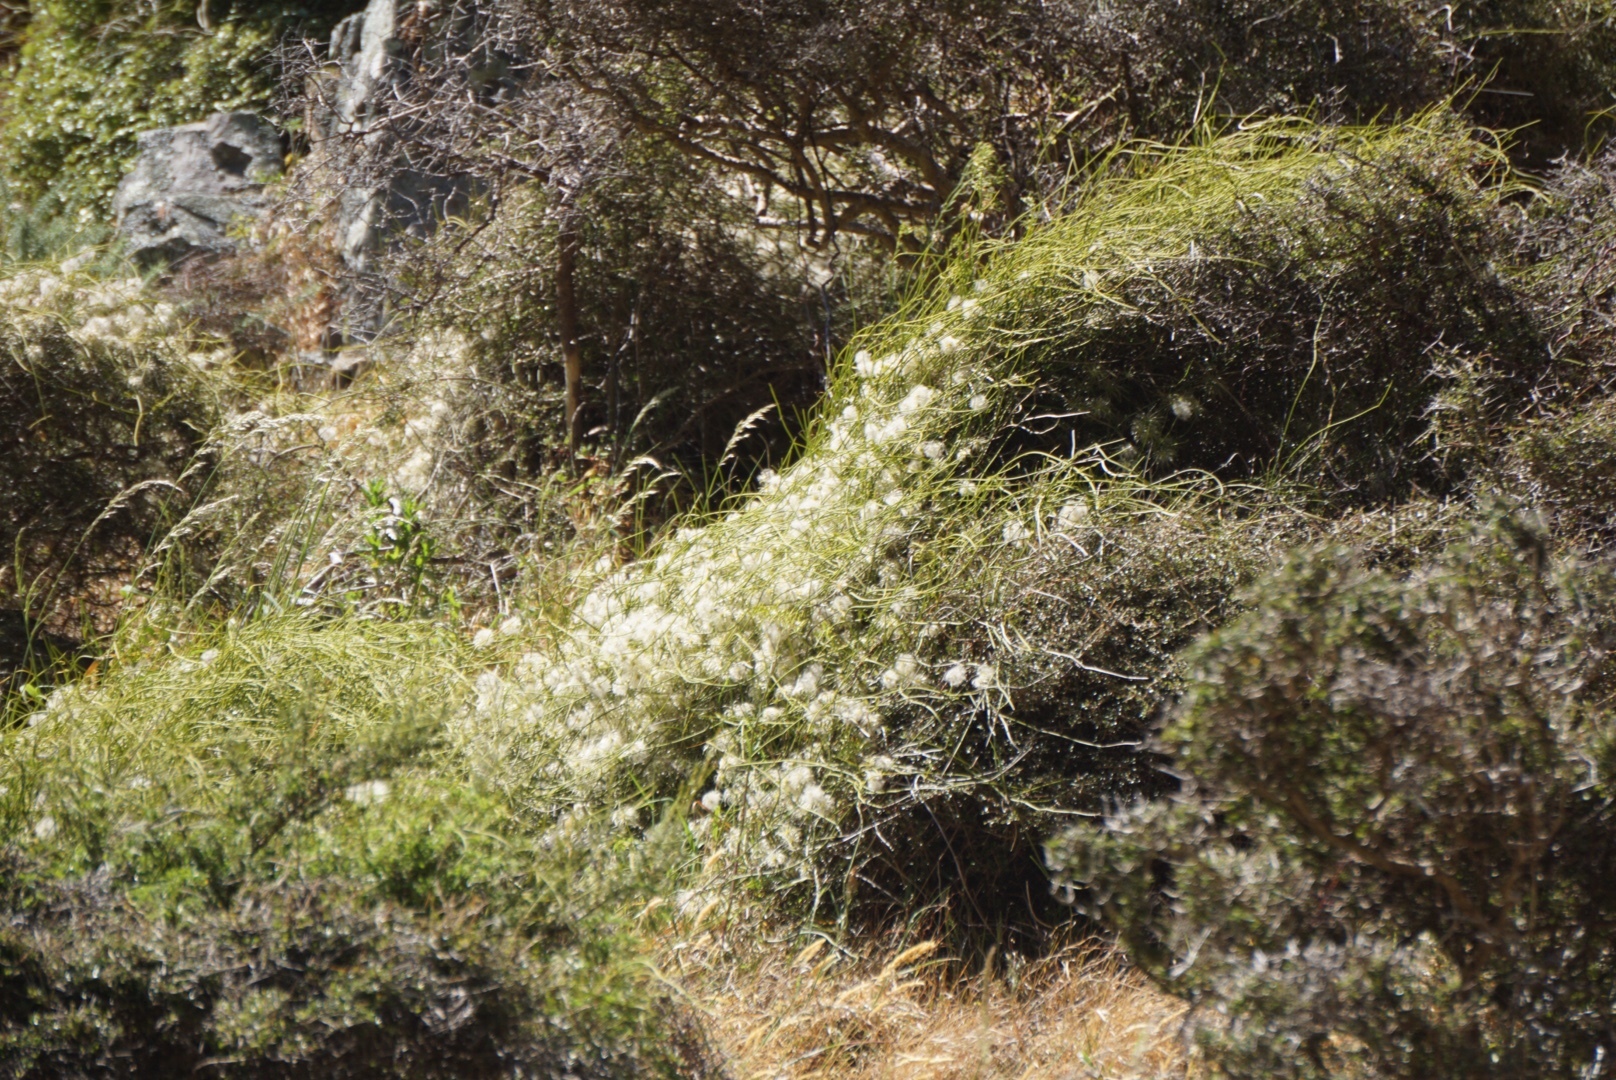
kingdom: Plantae
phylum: Tracheophyta
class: Magnoliopsida
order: Ranunculales
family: Ranunculaceae
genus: Clematis
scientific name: Clematis afoliata
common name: Rush-stem clematis
